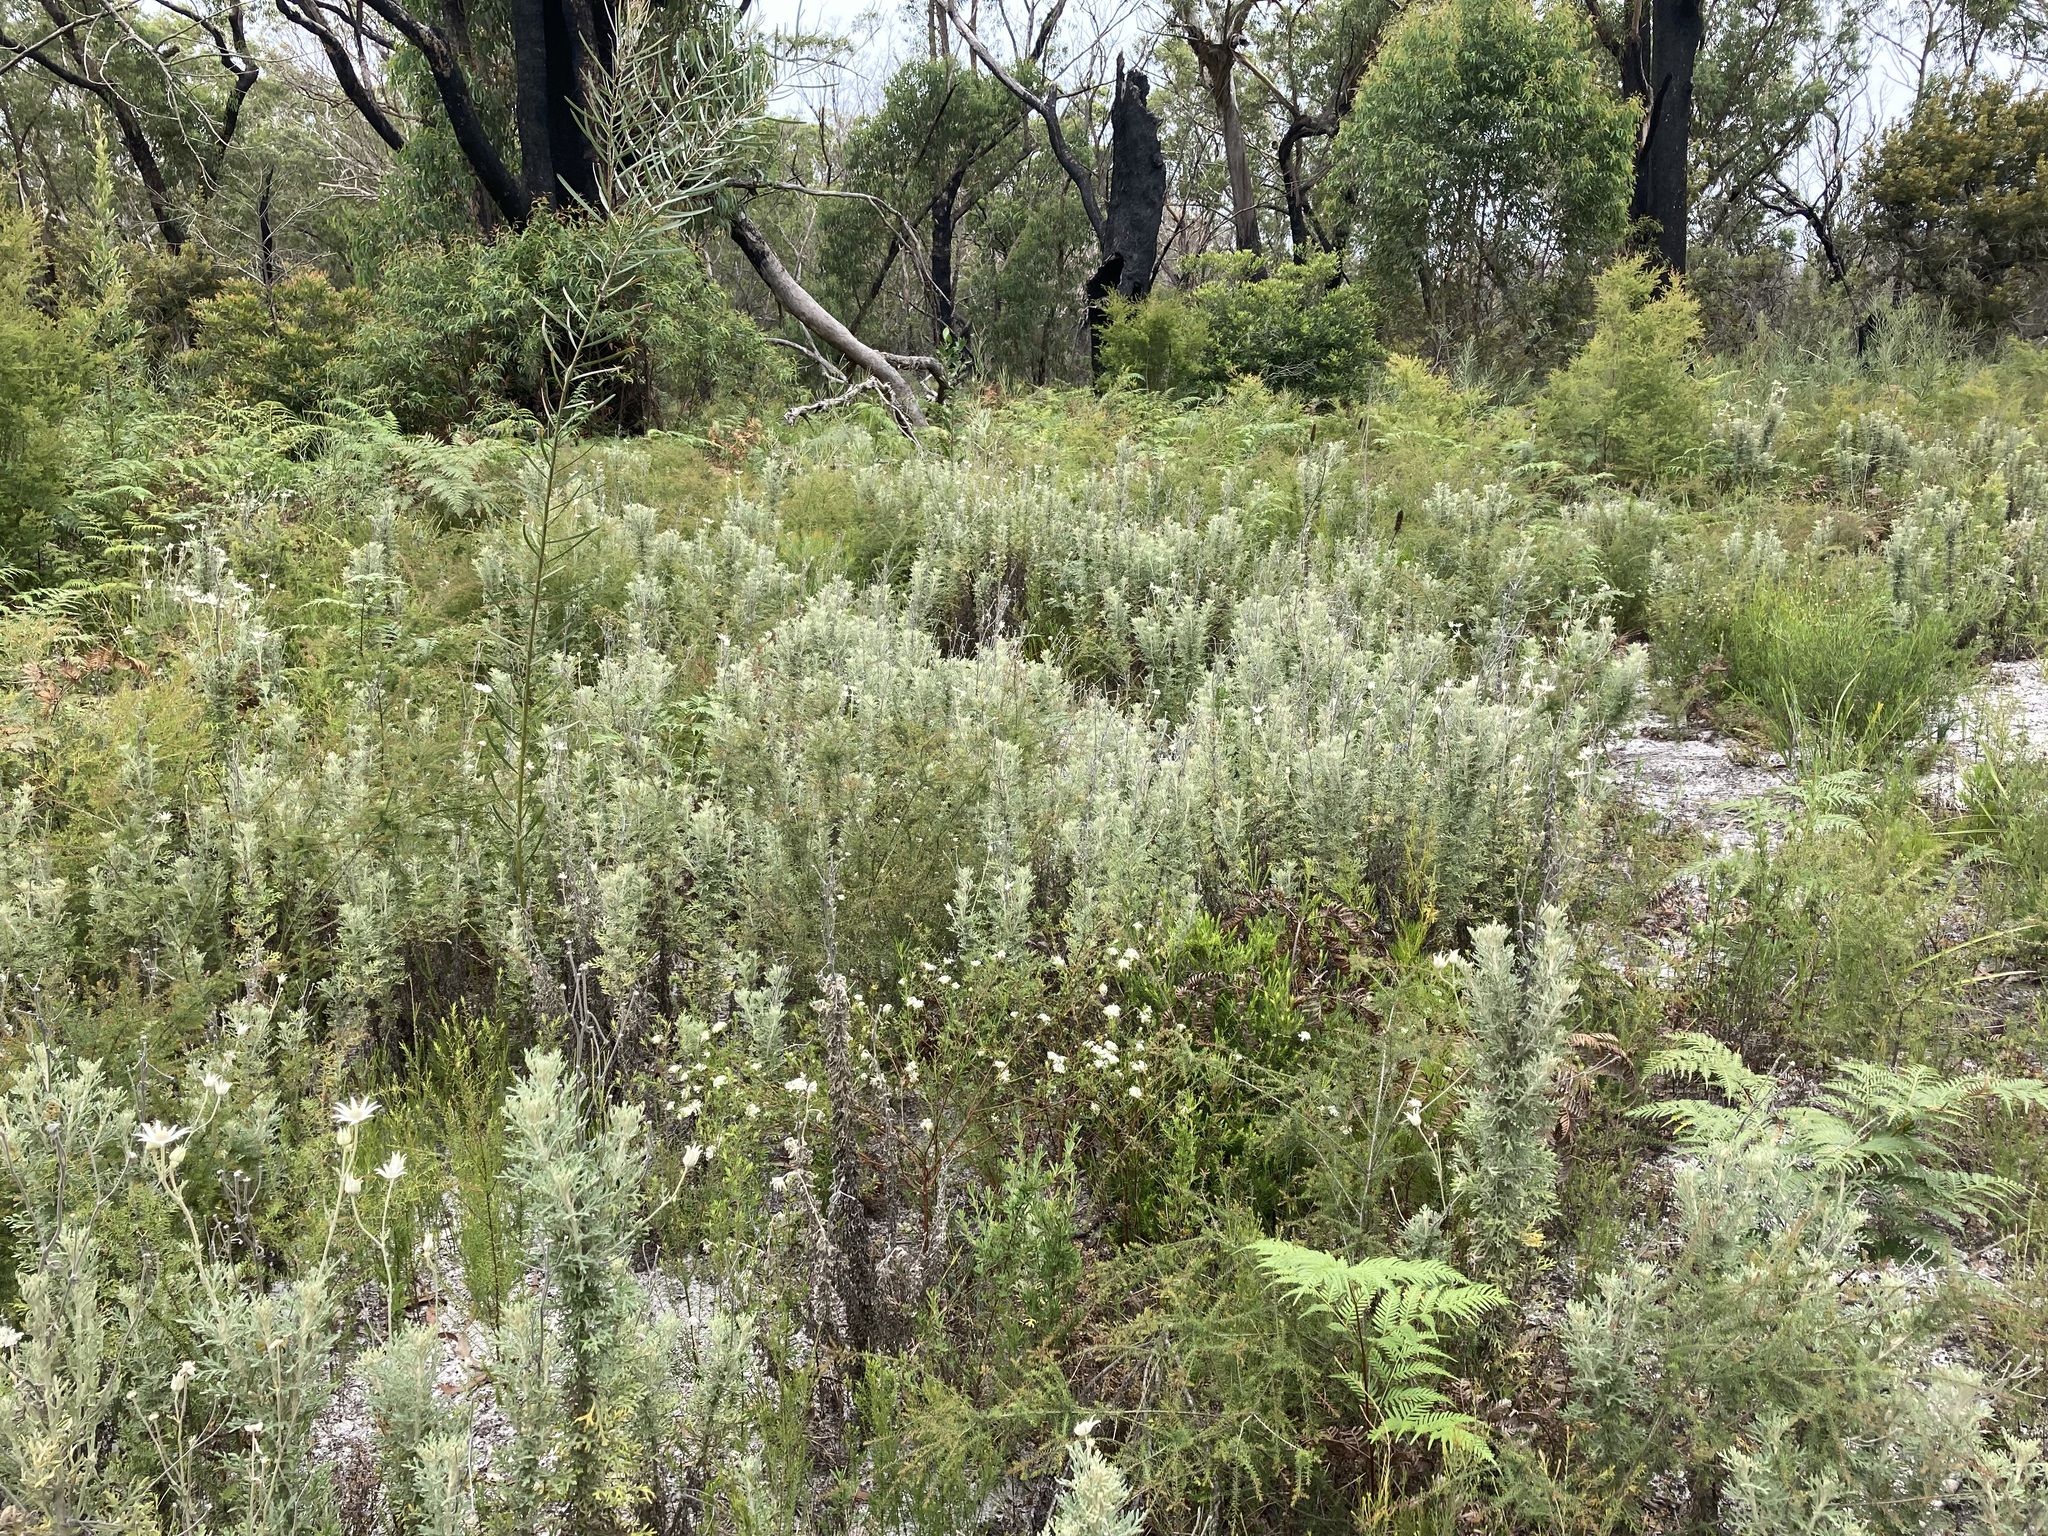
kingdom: Plantae
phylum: Tracheophyta
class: Magnoliopsida
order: Apiales
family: Apiaceae
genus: Actinotus
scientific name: Actinotus helianthi
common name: Flannel-flower
